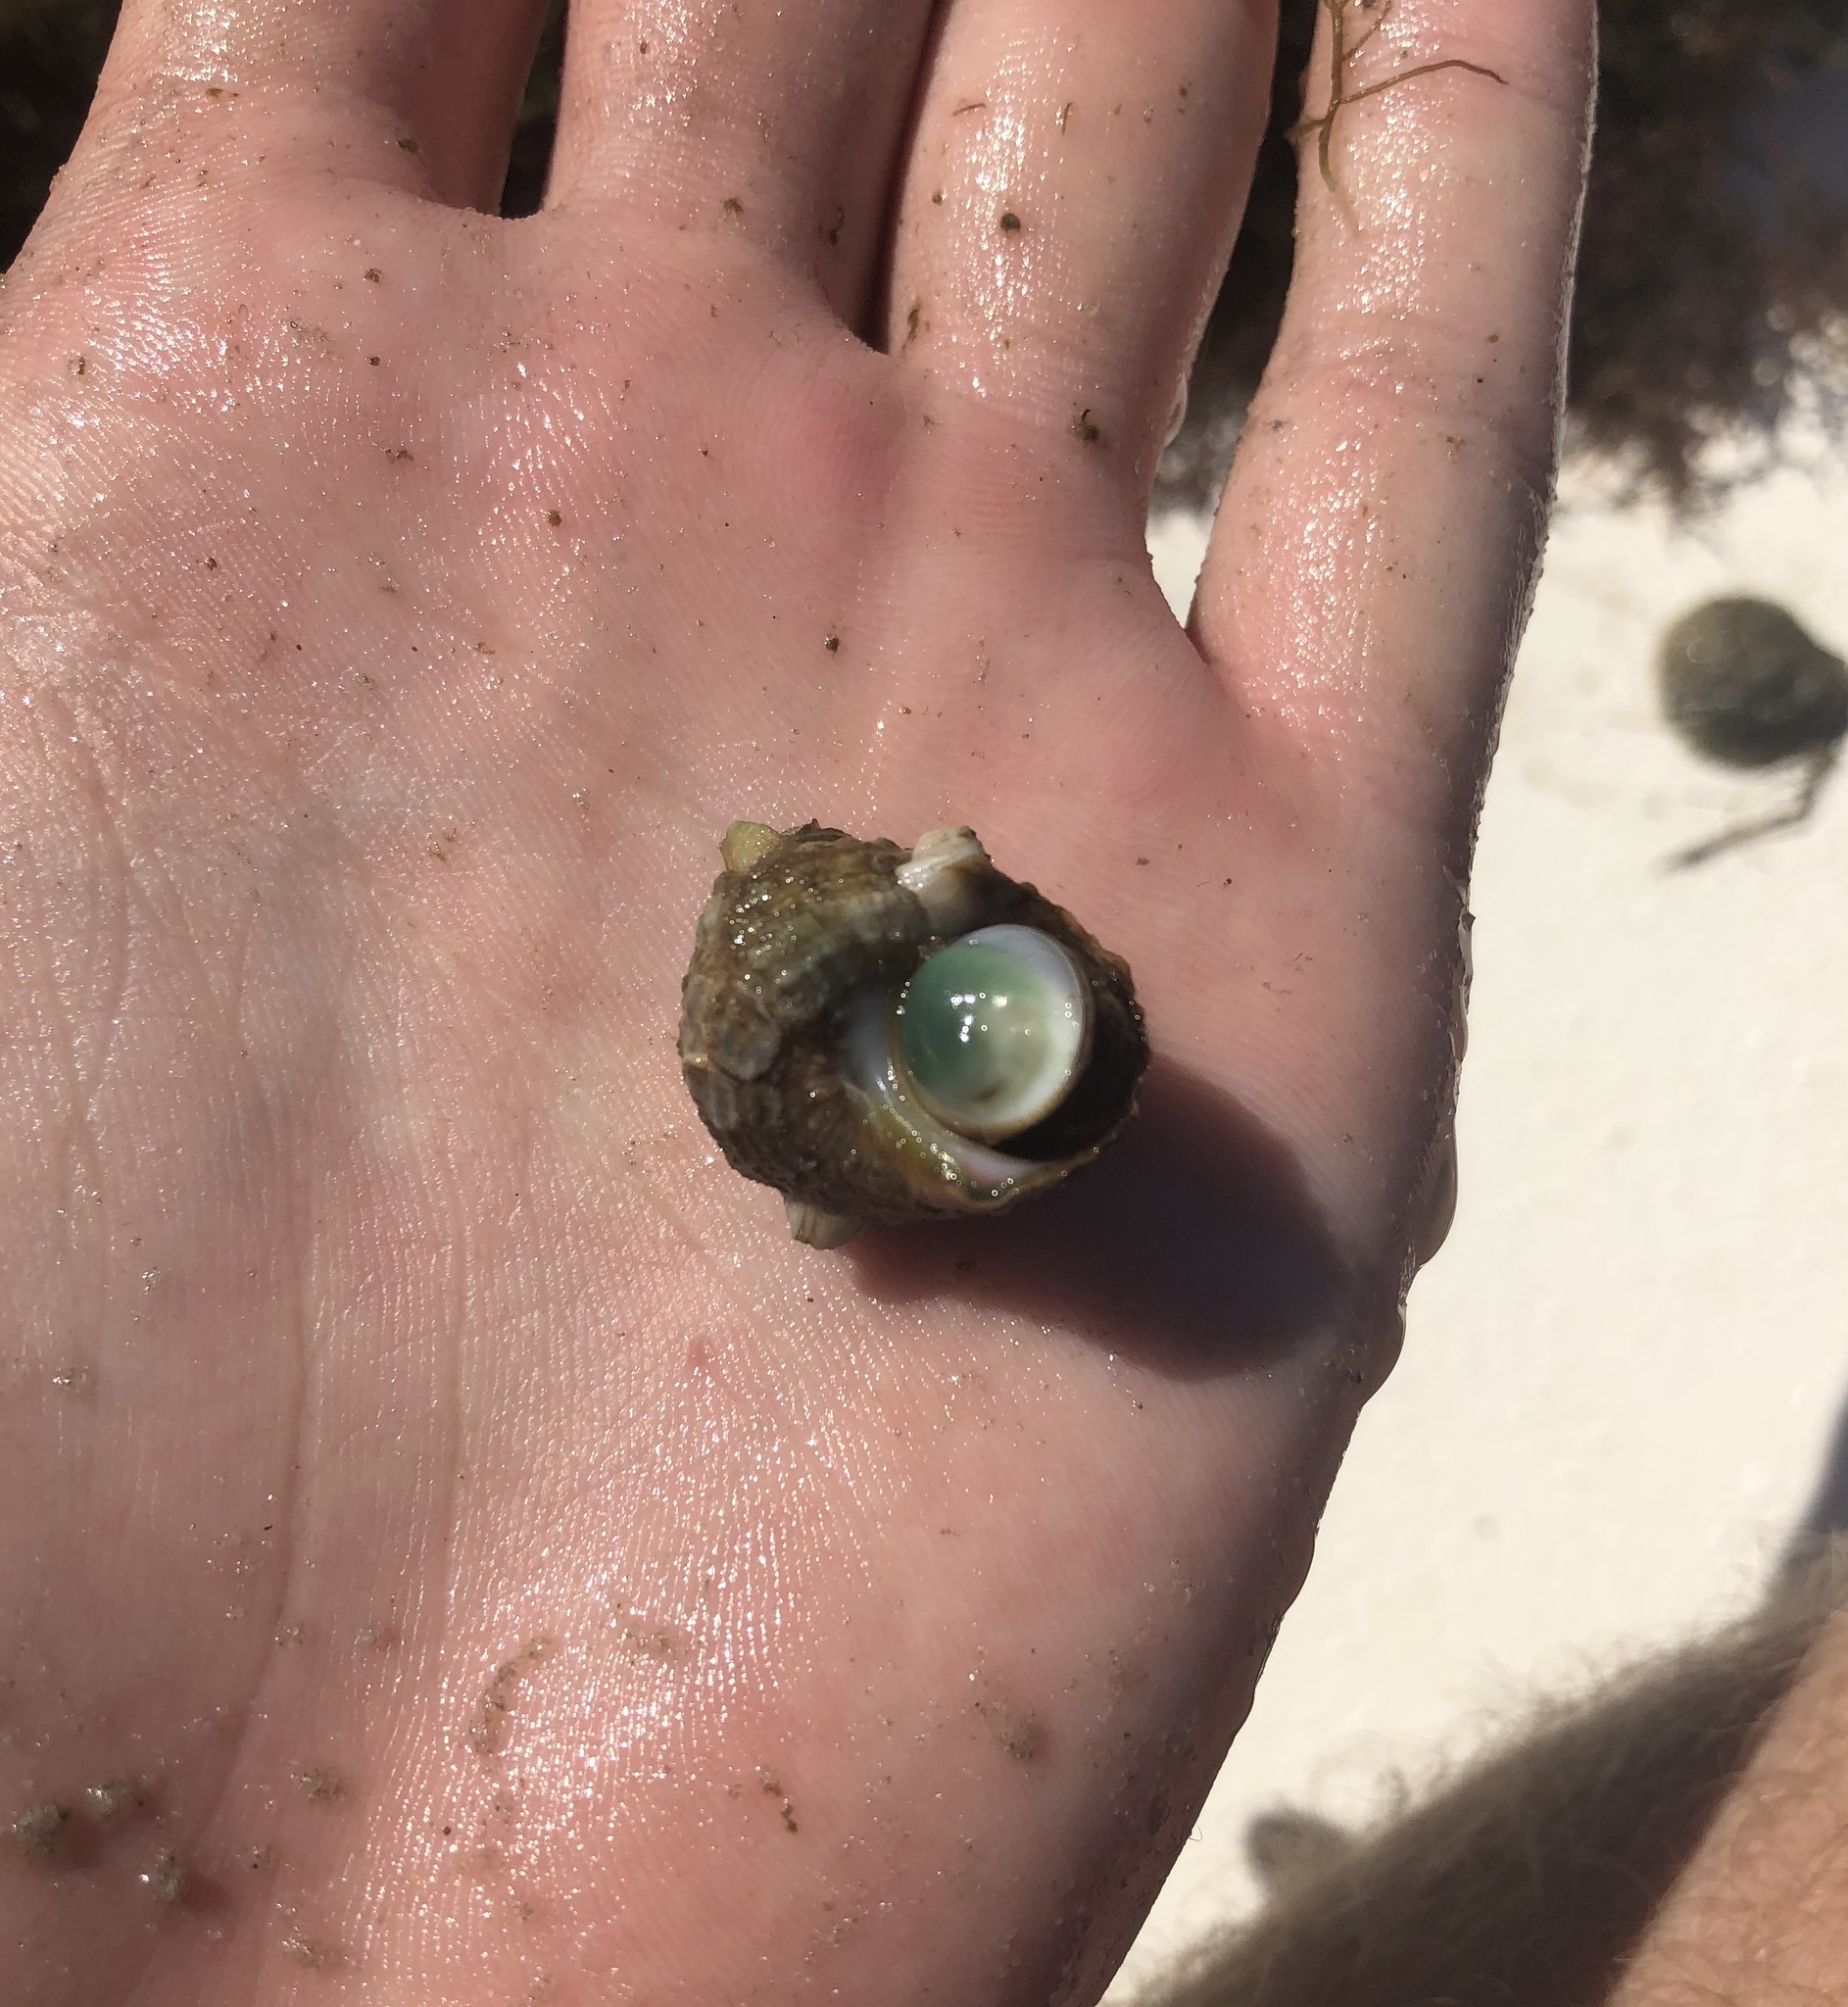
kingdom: Animalia
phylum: Mollusca
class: Gastropoda
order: Trochida
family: Turbinidae
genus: Turbo
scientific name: Turbo castanea
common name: Chestnut turban
